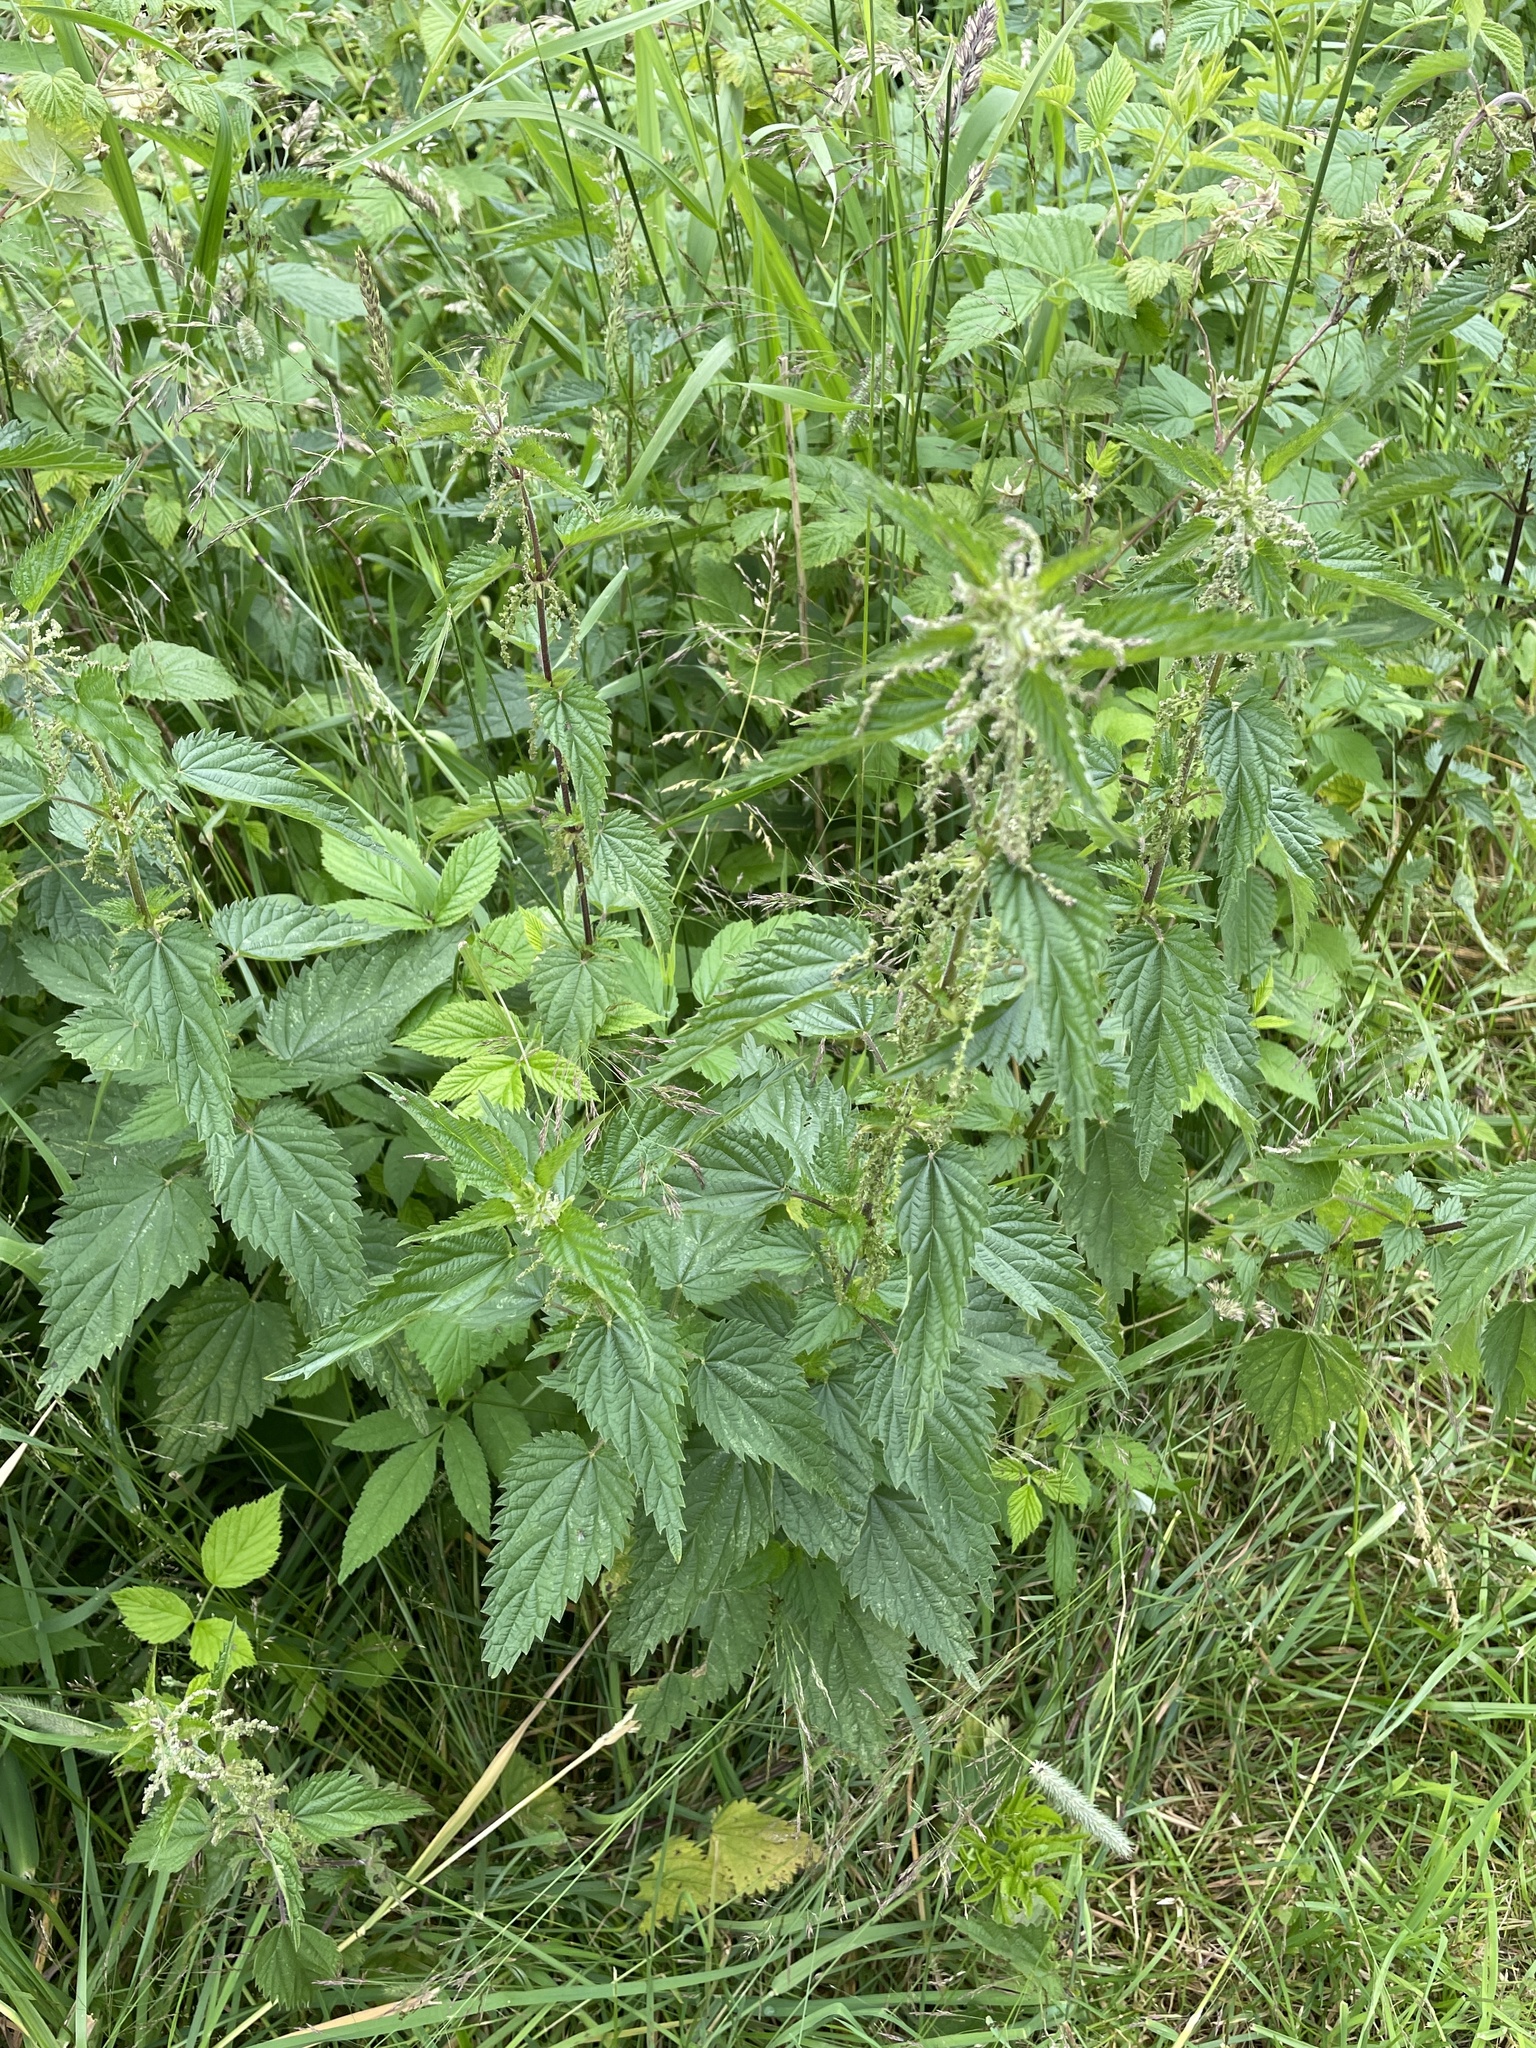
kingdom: Plantae
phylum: Tracheophyta
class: Magnoliopsida
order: Rosales
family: Urticaceae
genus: Urtica
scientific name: Urtica dioica
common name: Common nettle
